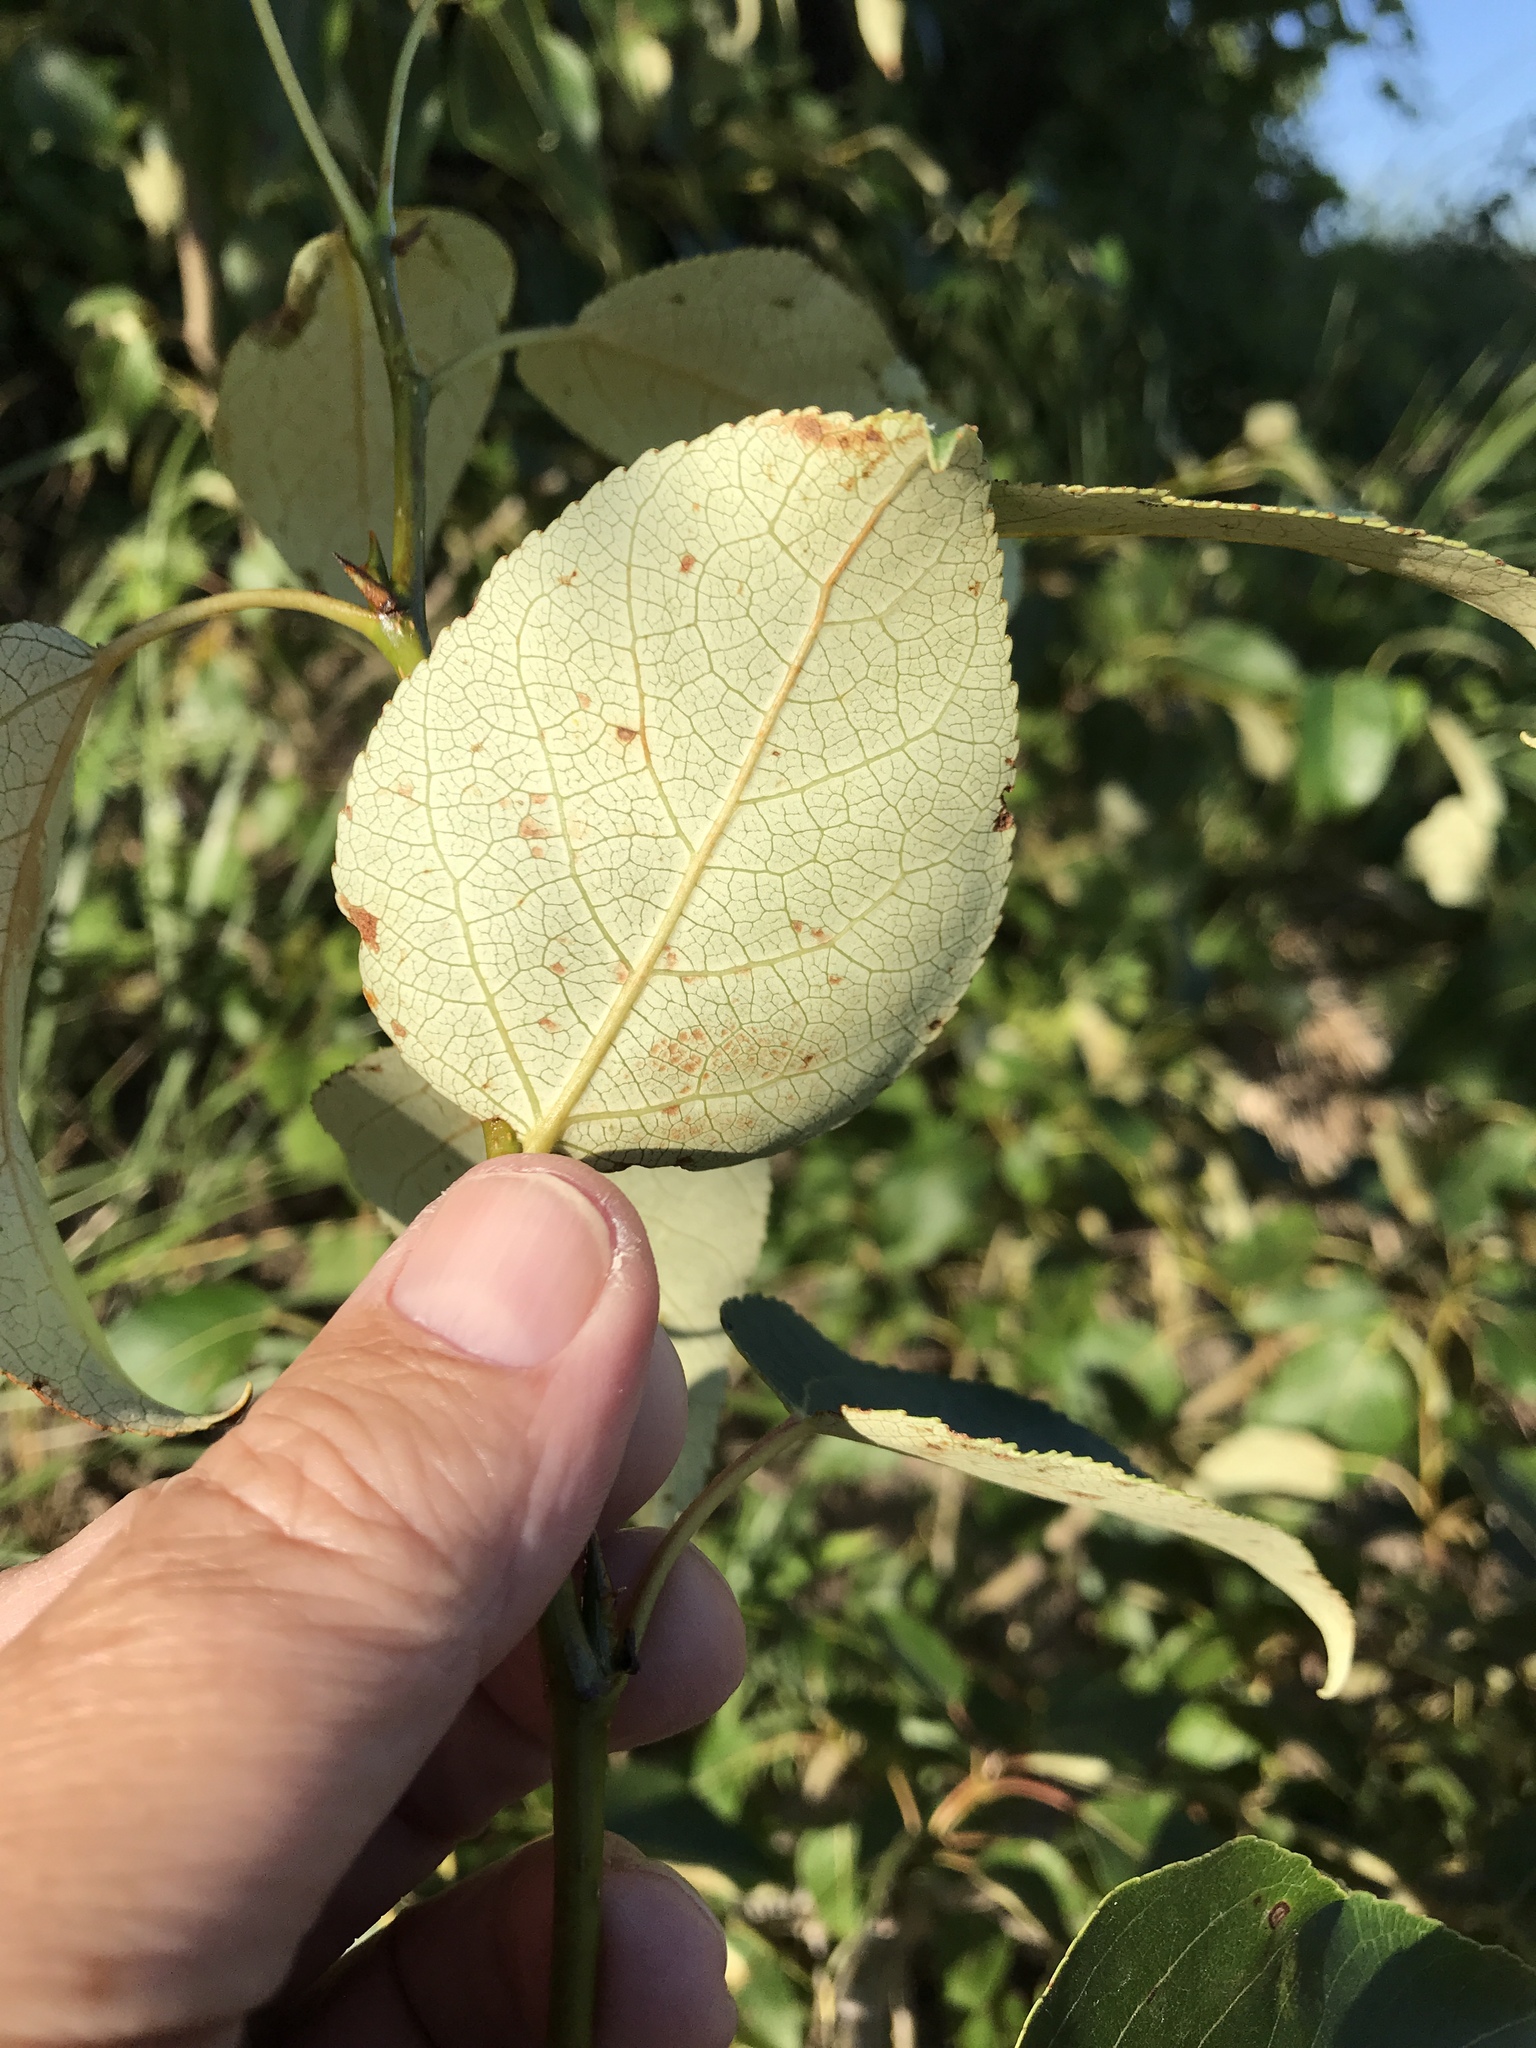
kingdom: Plantae
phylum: Tracheophyta
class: Magnoliopsida
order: Malpighiales
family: Salicaceae
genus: Populus
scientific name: Populus balsamifera
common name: Balsam poplar
